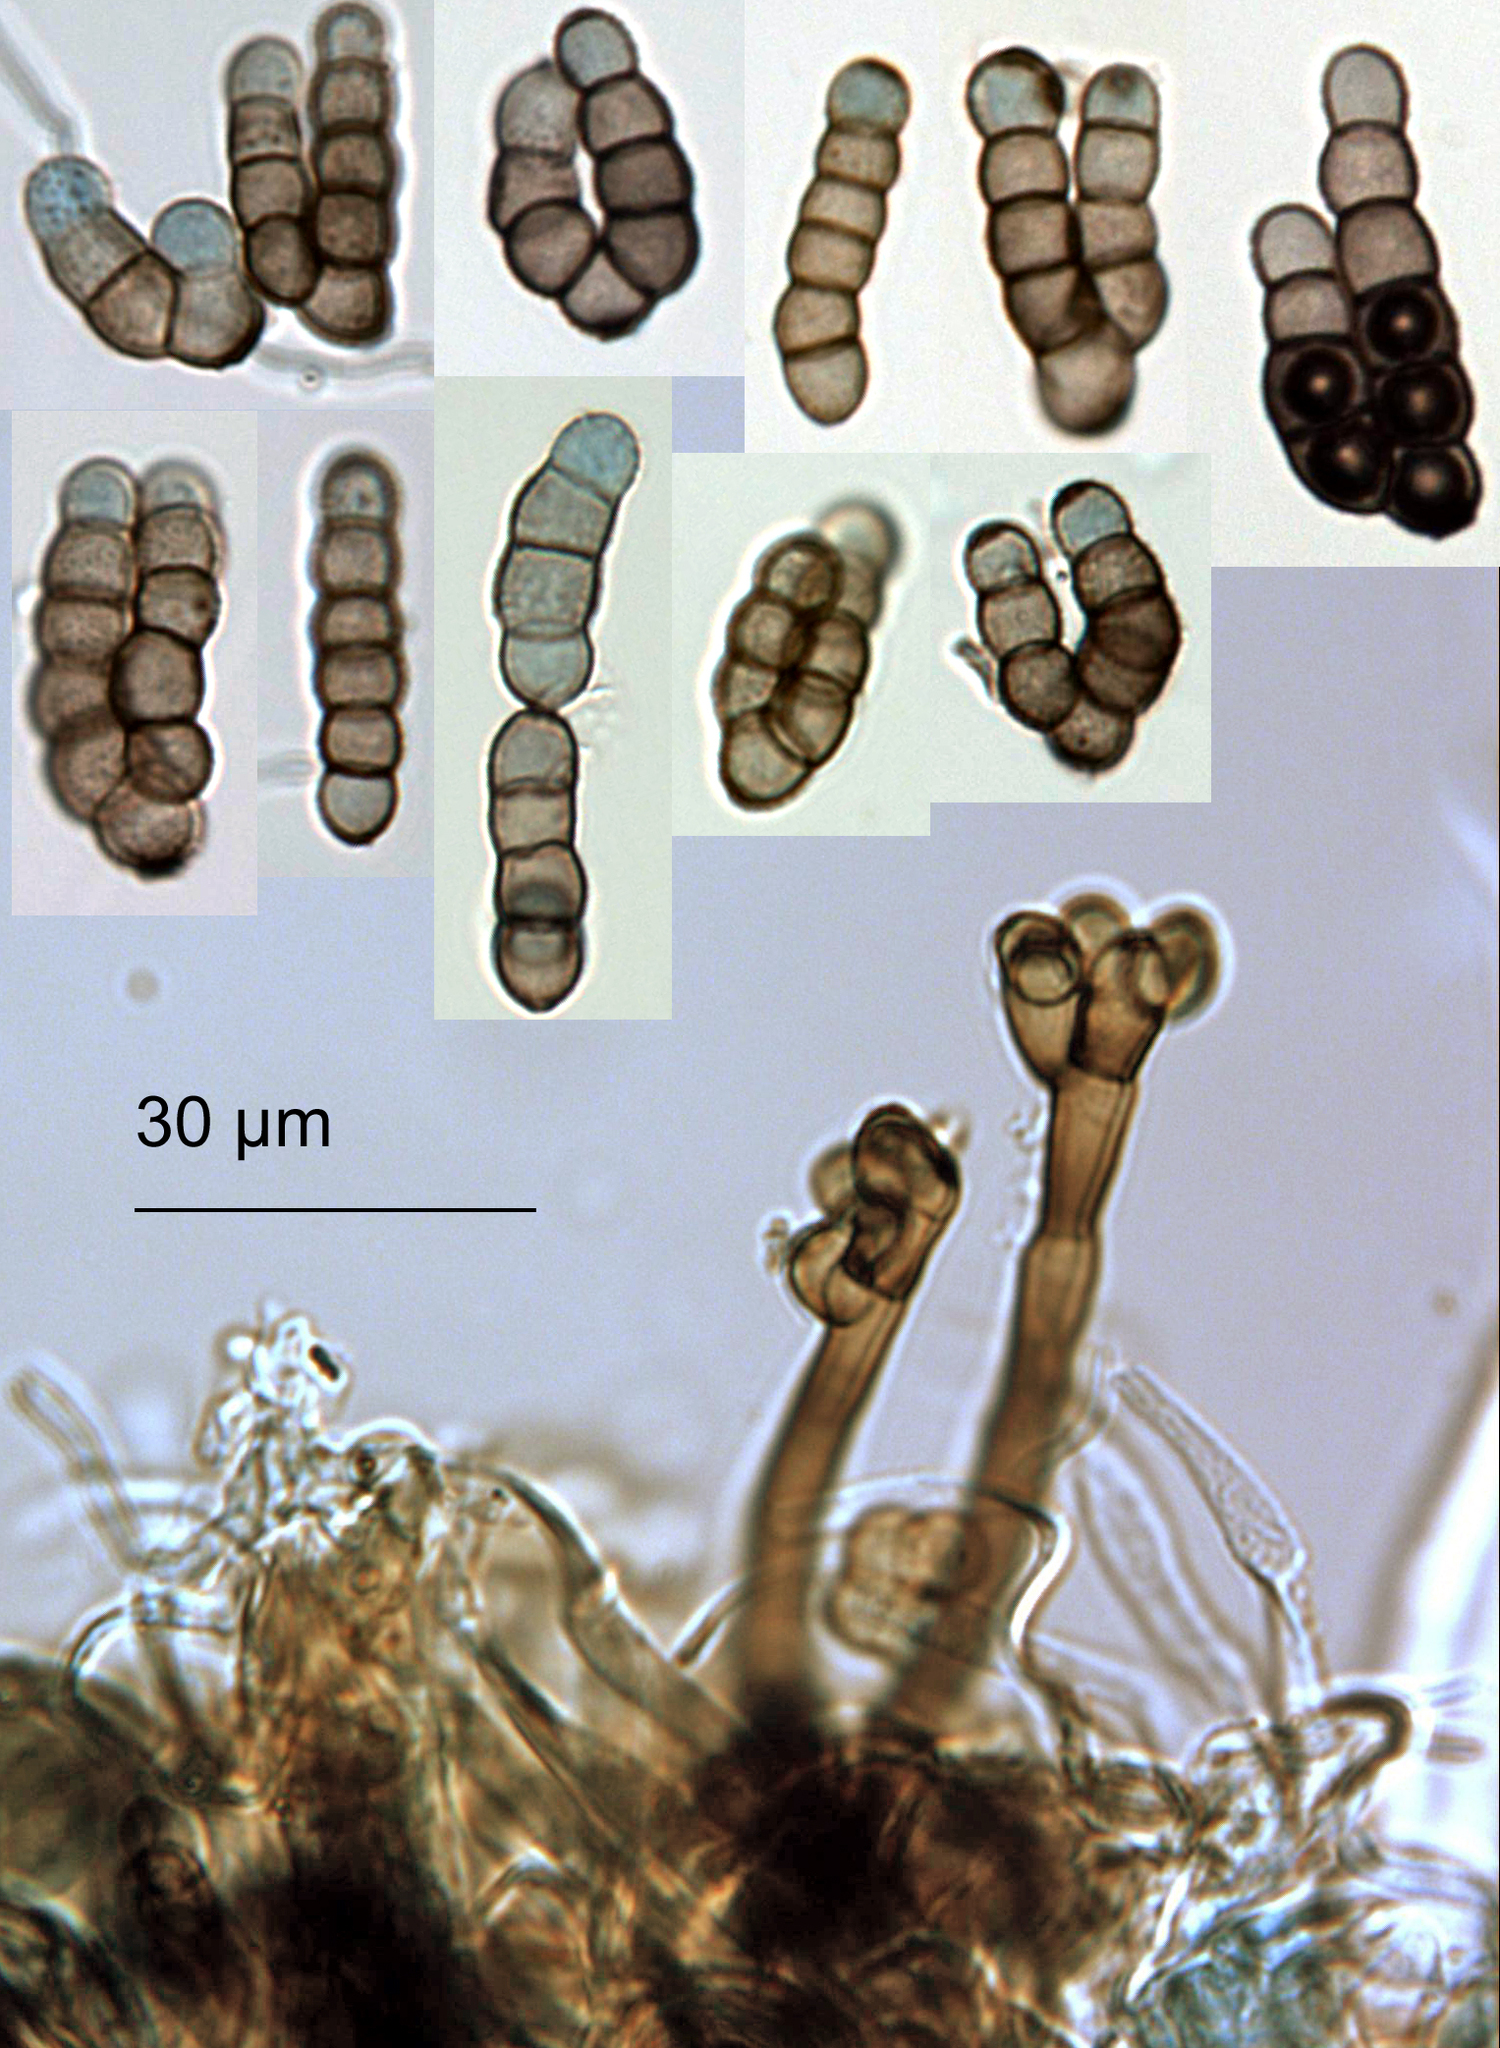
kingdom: Fungi
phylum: Ascomycota
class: Dothideomycetes
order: Pleosporales
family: Torulaceae
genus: Dendryphion
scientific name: Dendryphion digitatum
